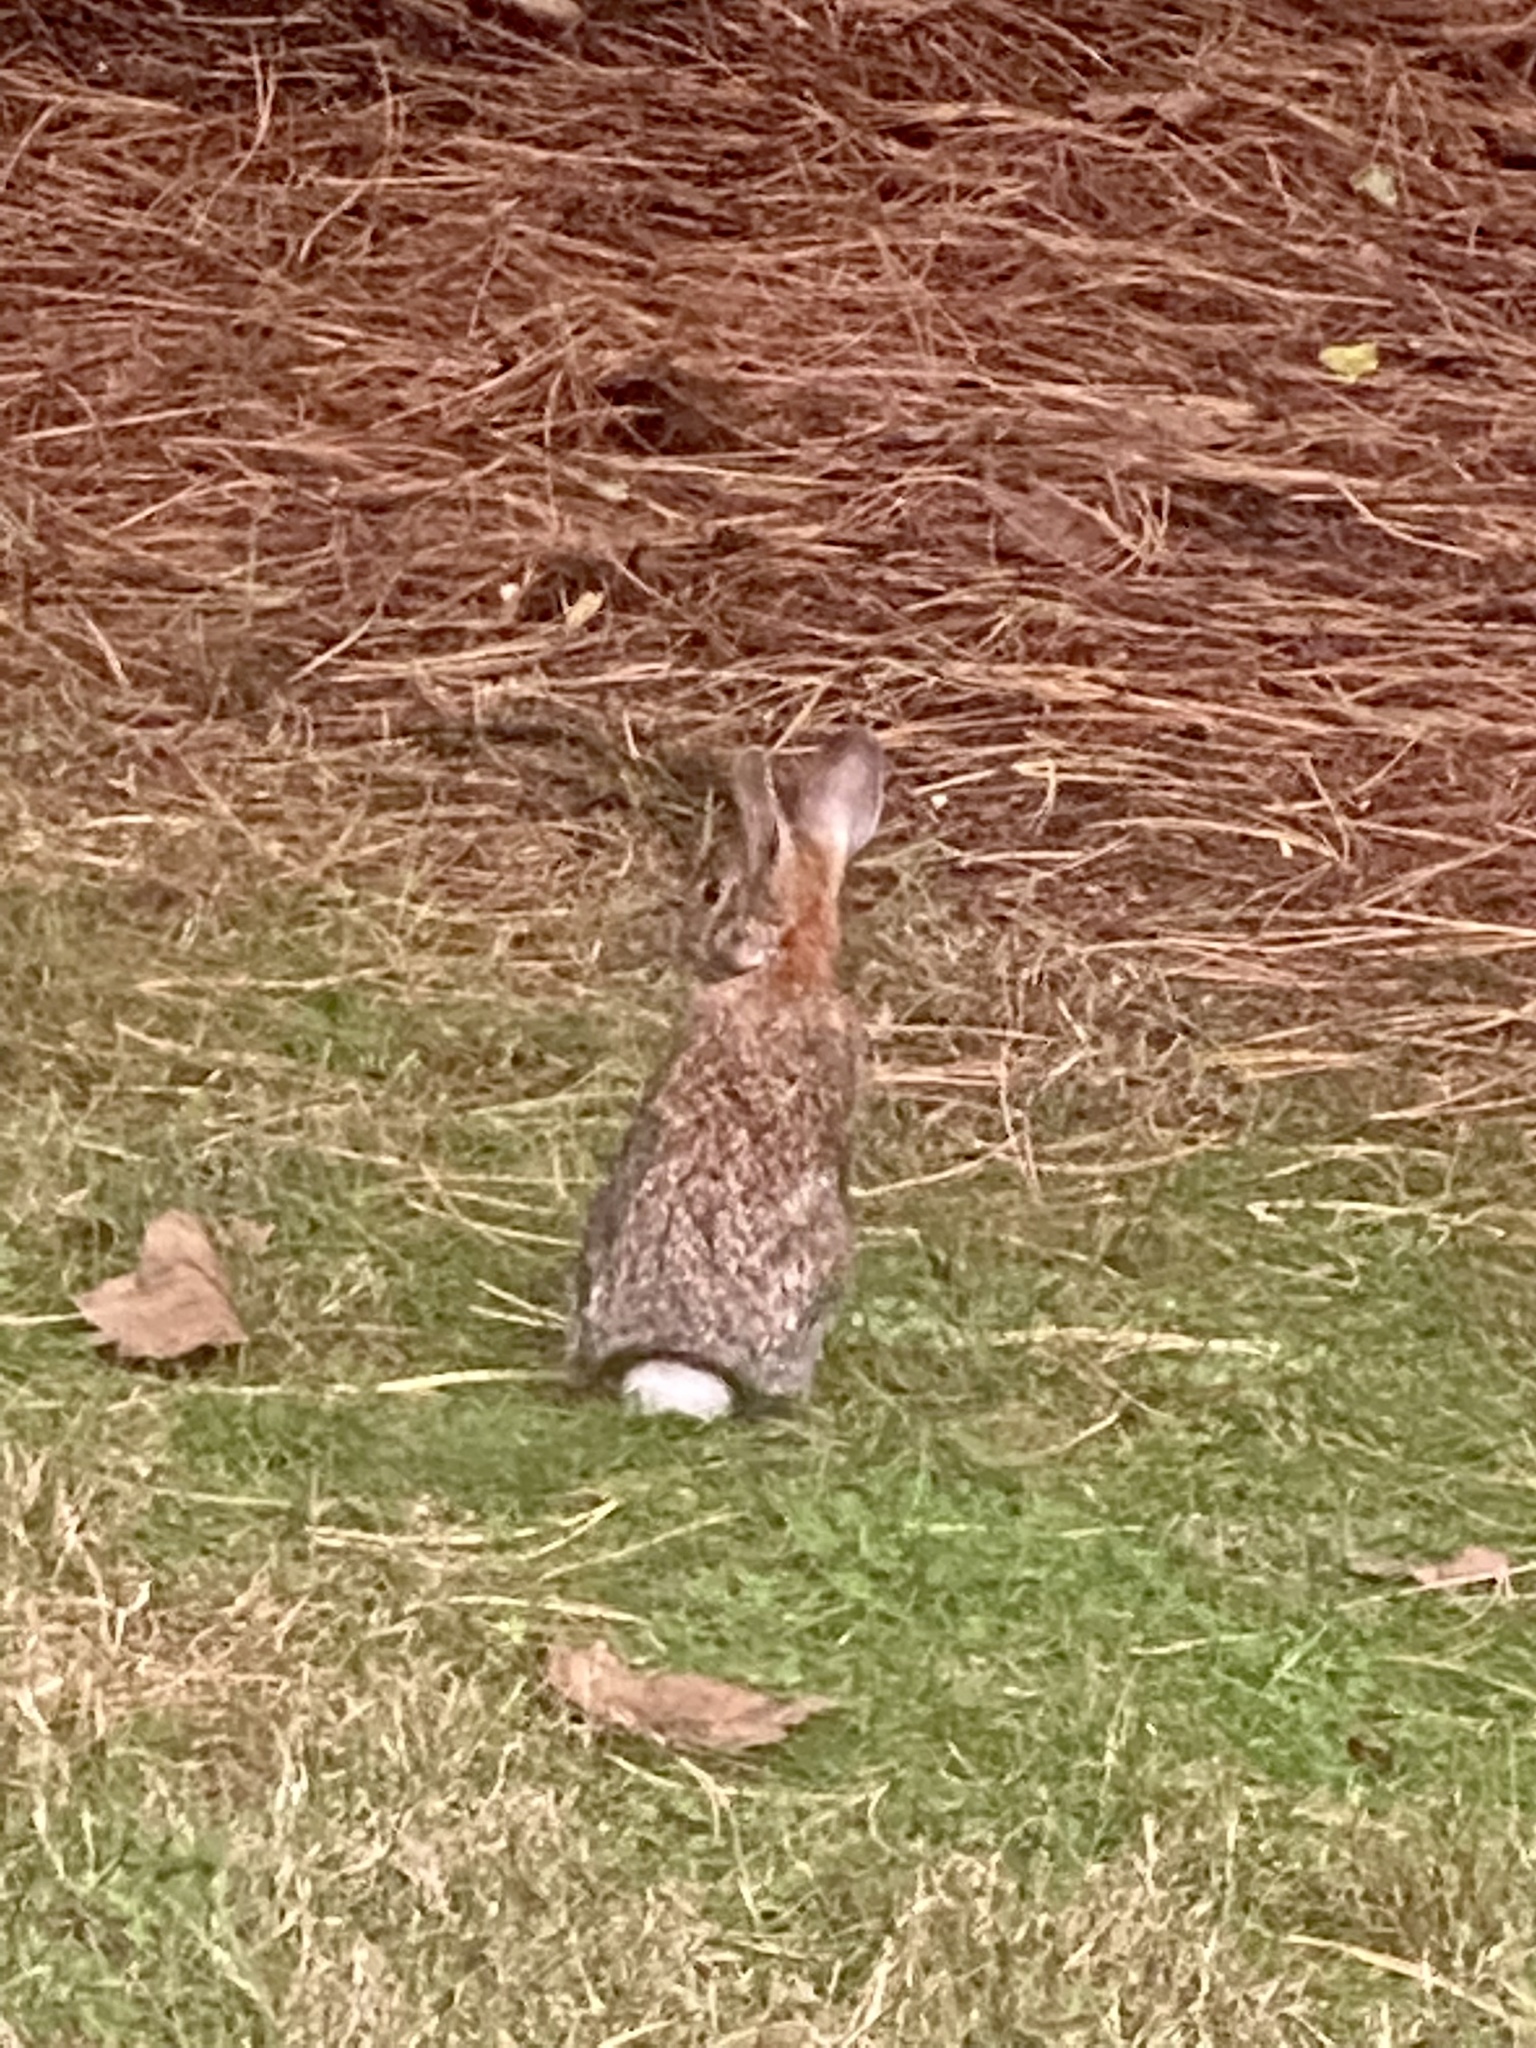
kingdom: Animalia
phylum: Chordata
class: Mammalia
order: Lagomorpha
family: Leporidae
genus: Sylvilagus
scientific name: Sylvilagus floridanus
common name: Eastern cottontail
